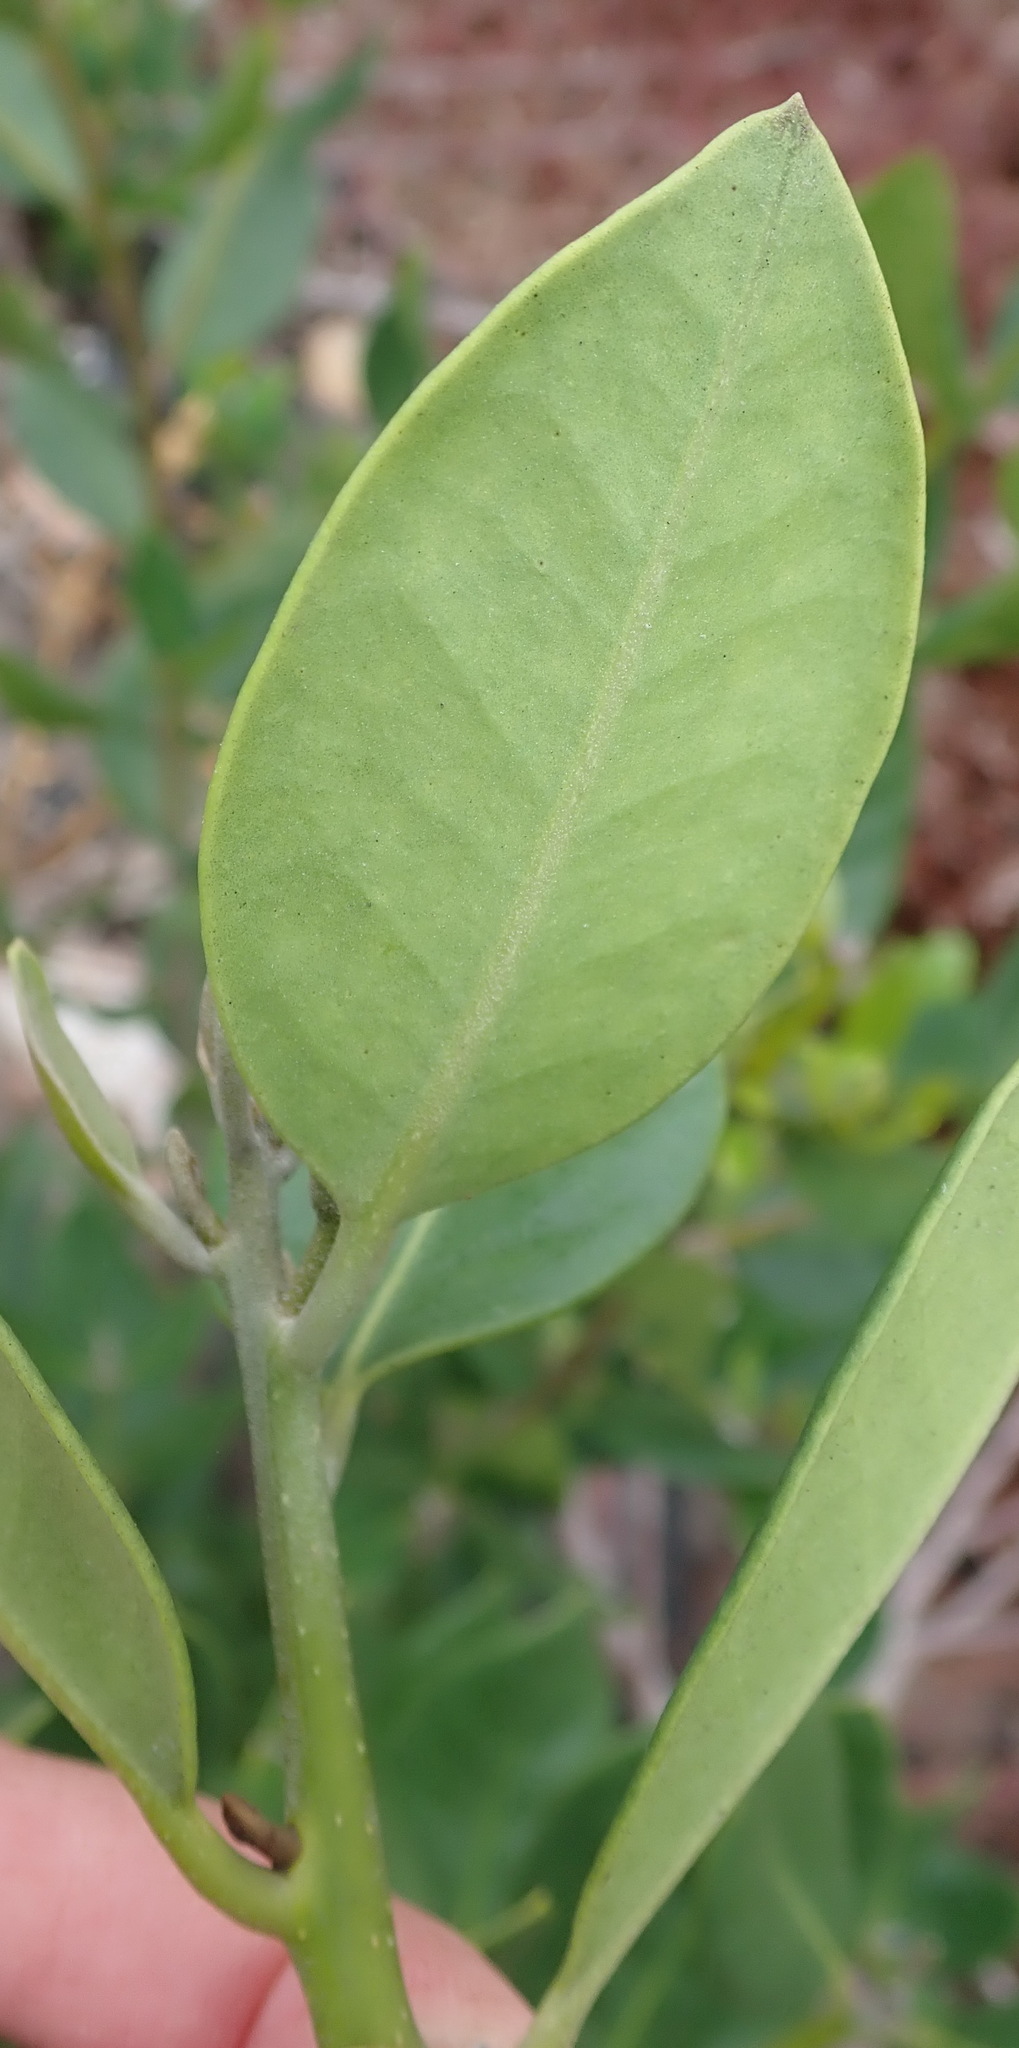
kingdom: Plantae
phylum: Tracheophyta
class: Magnoliopsida
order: Lamiales
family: Oleaceae
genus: Noronhia
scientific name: Noronhia foveolata
